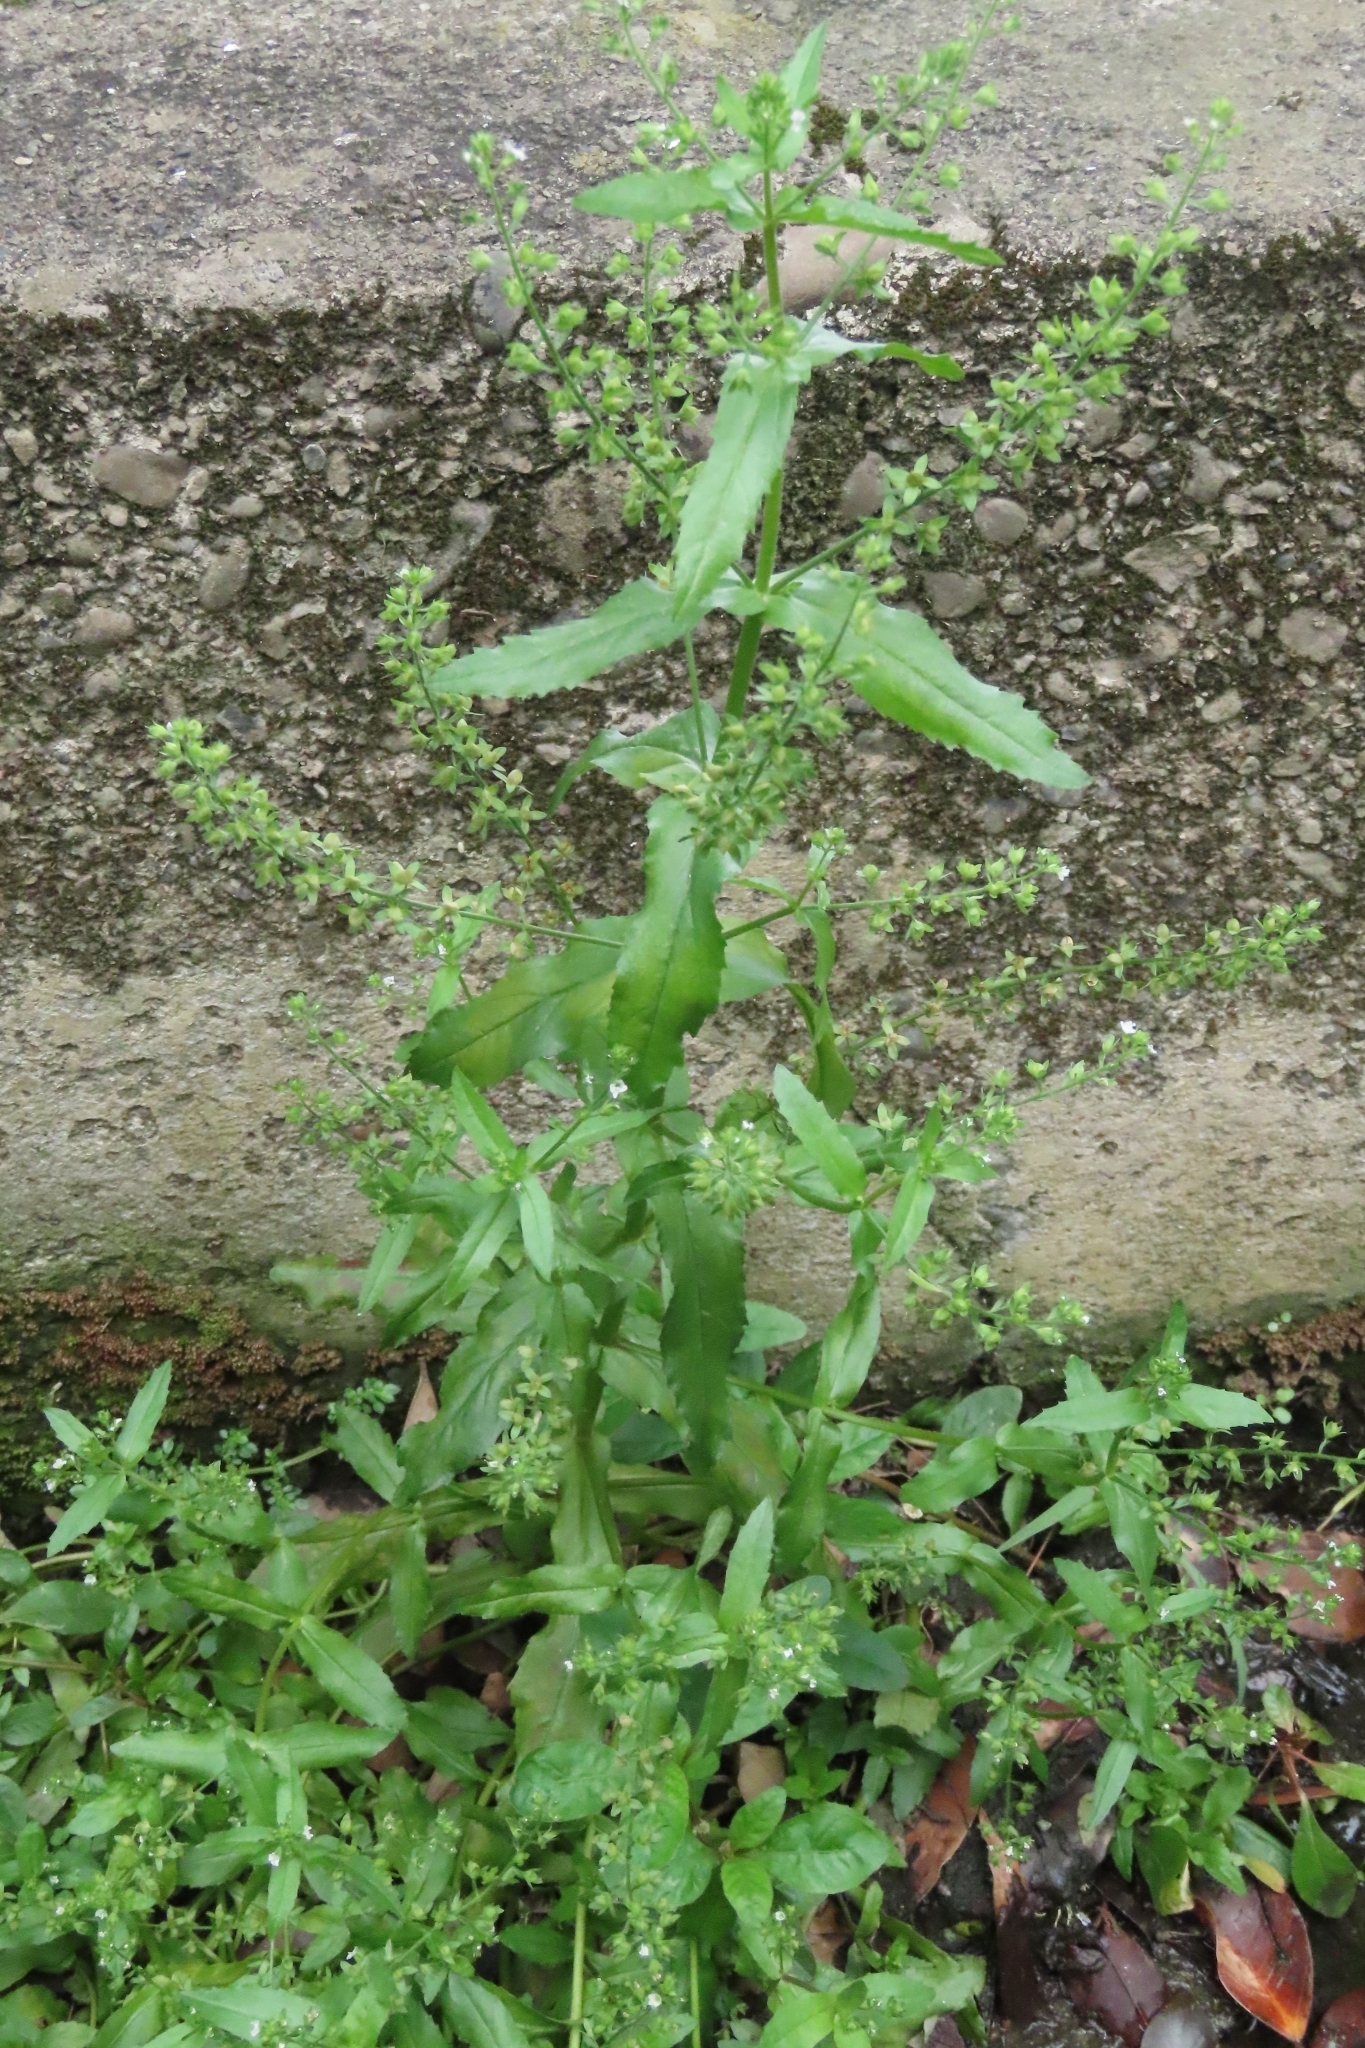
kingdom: Plantae
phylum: Tracheophyta
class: Magnoliopsida
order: Lamiales
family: Plantaginaceae
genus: Veronica
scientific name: Veronica undulata
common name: Undulate speedwell
